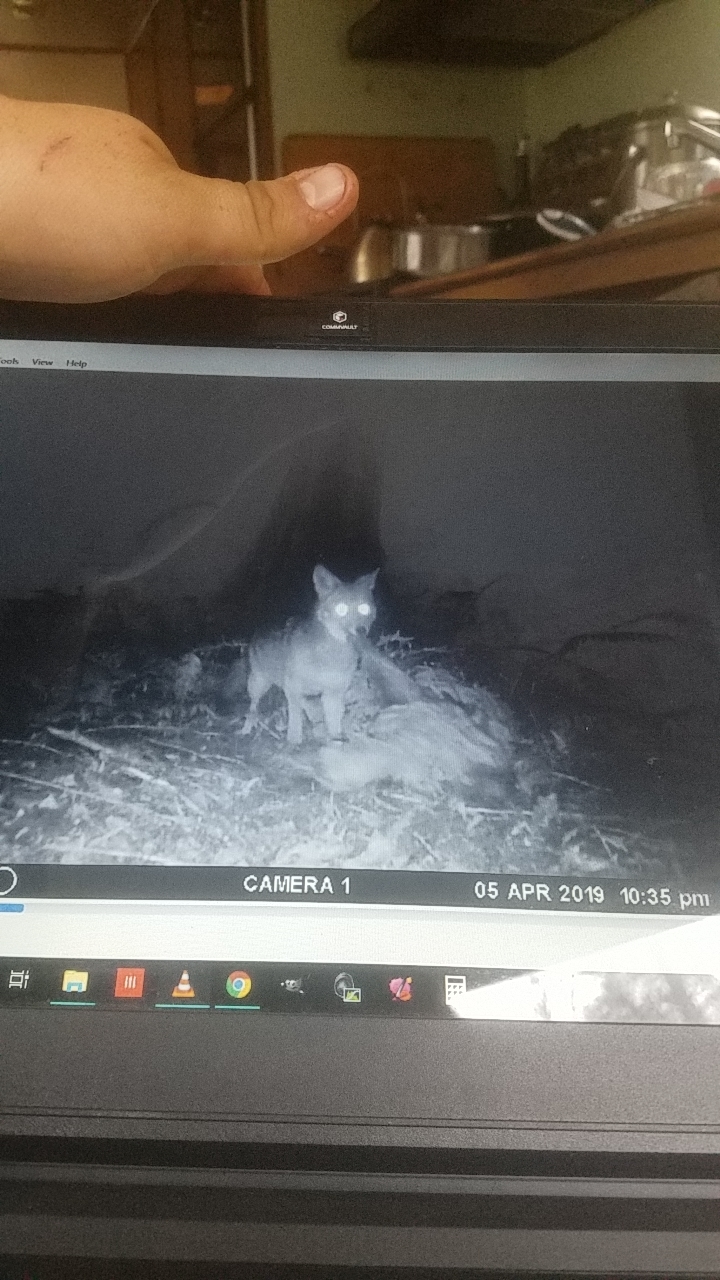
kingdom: Animalia
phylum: Chordata
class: Mammalia
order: Carnivora
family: Canidae
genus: Canis
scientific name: Canis latrans
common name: Coyote
